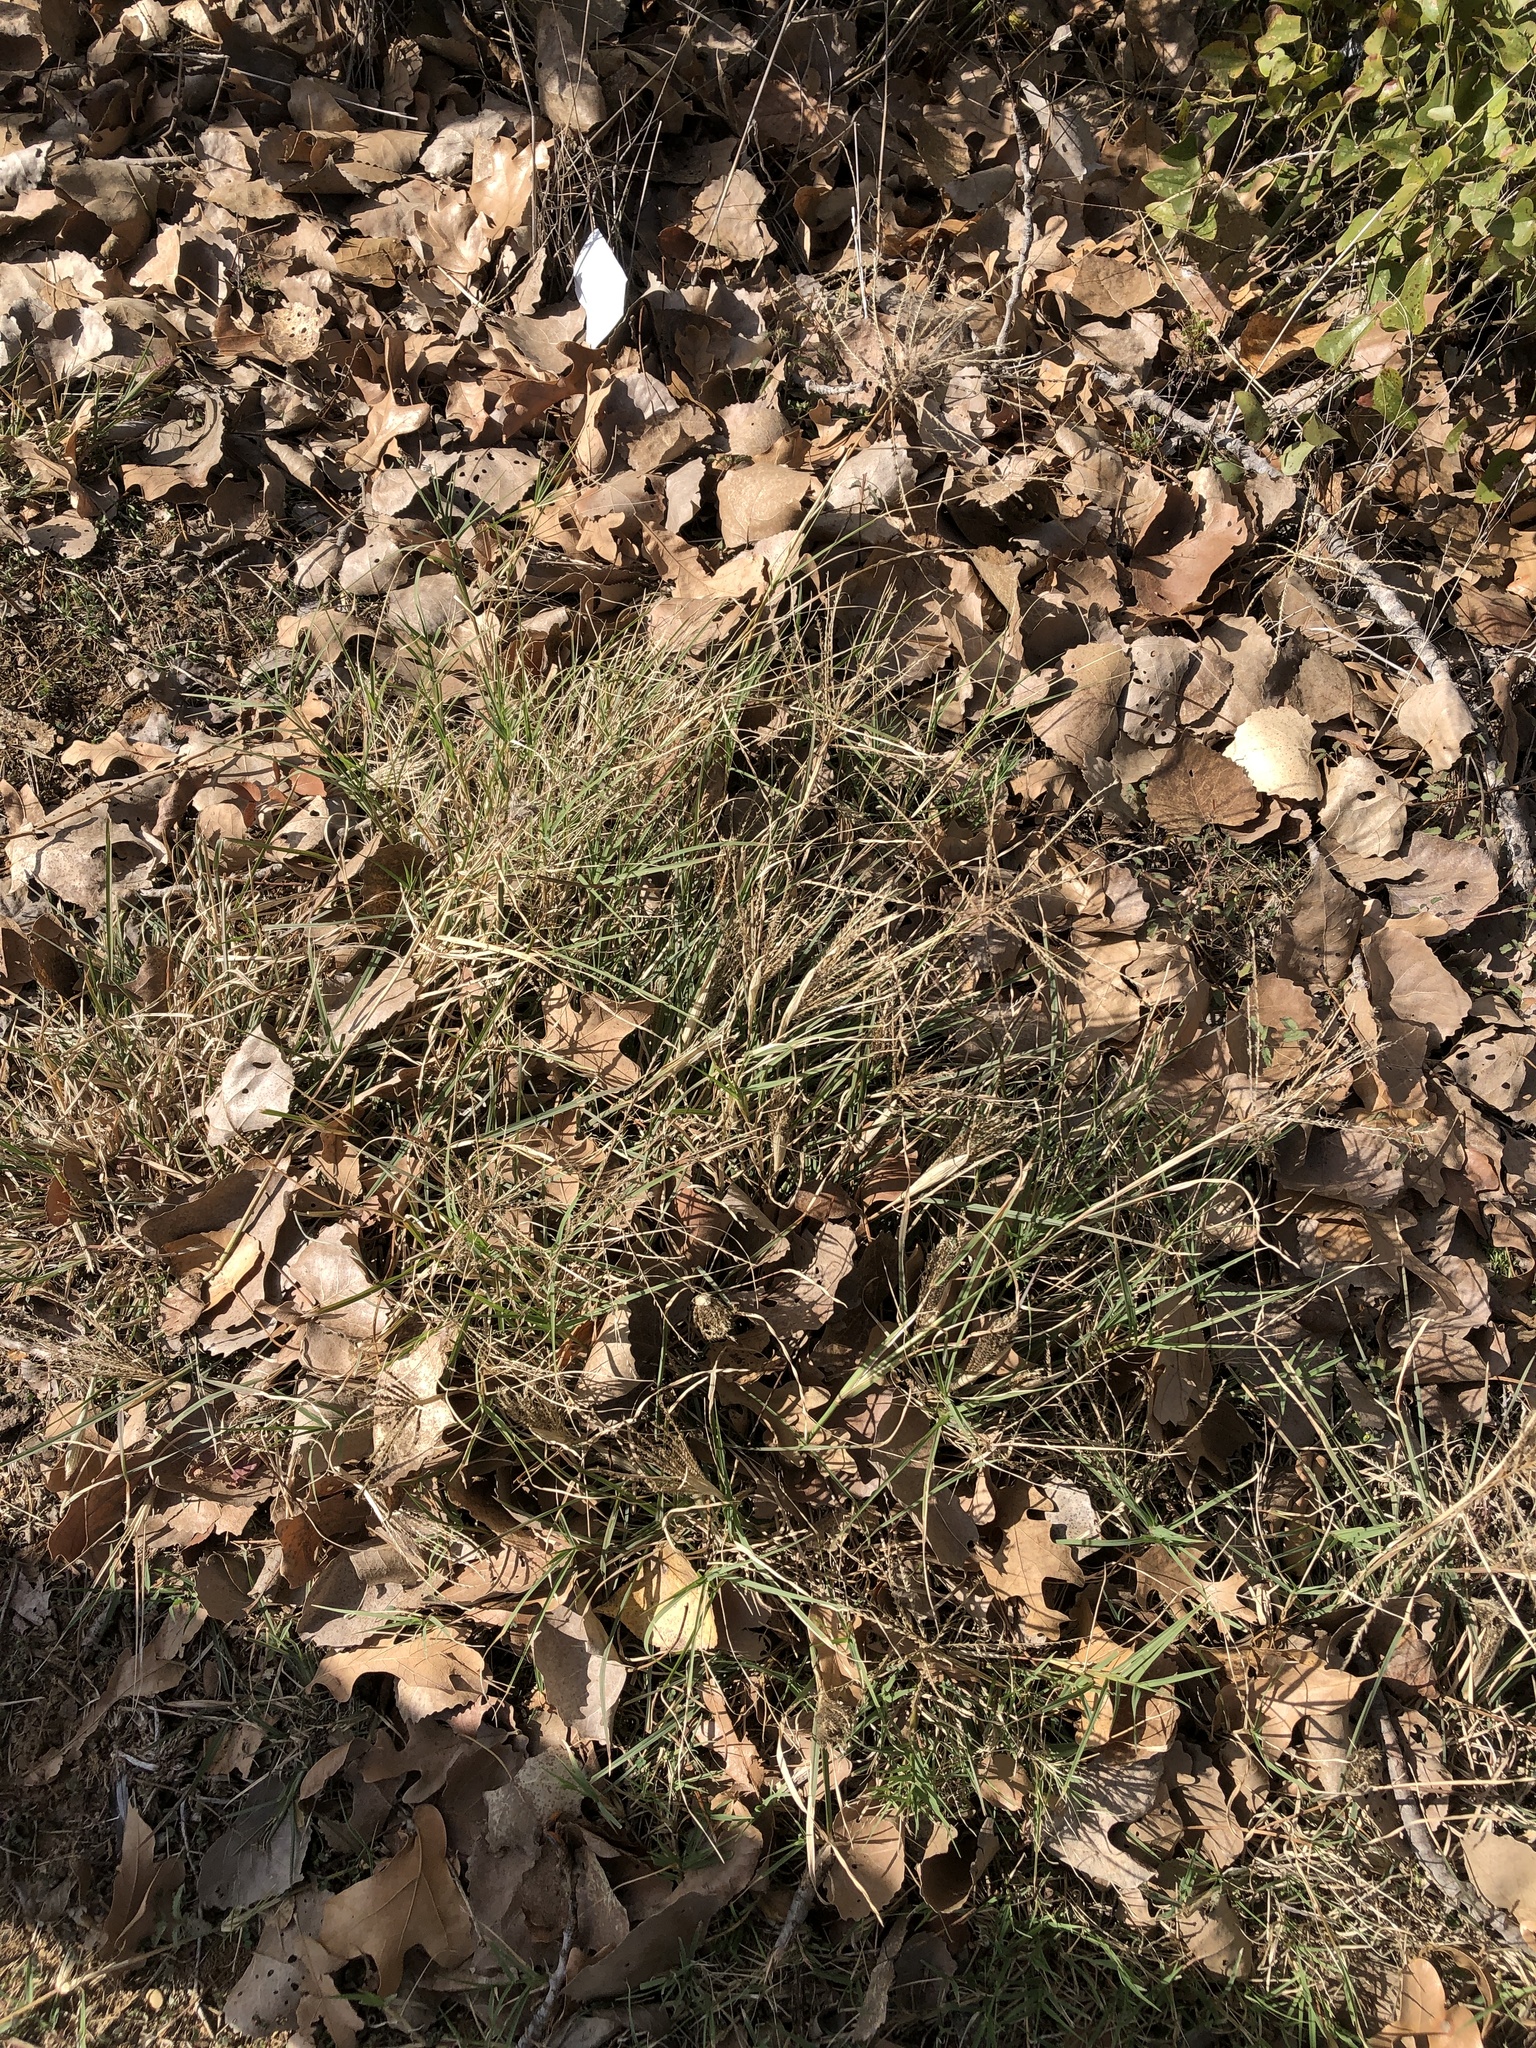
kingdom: Plantae
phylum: Tracheophyta
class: Liliopsida
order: Poales
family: Poaceae
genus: Chloris
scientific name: Chloris verticillata
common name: Tumble windmill grass
